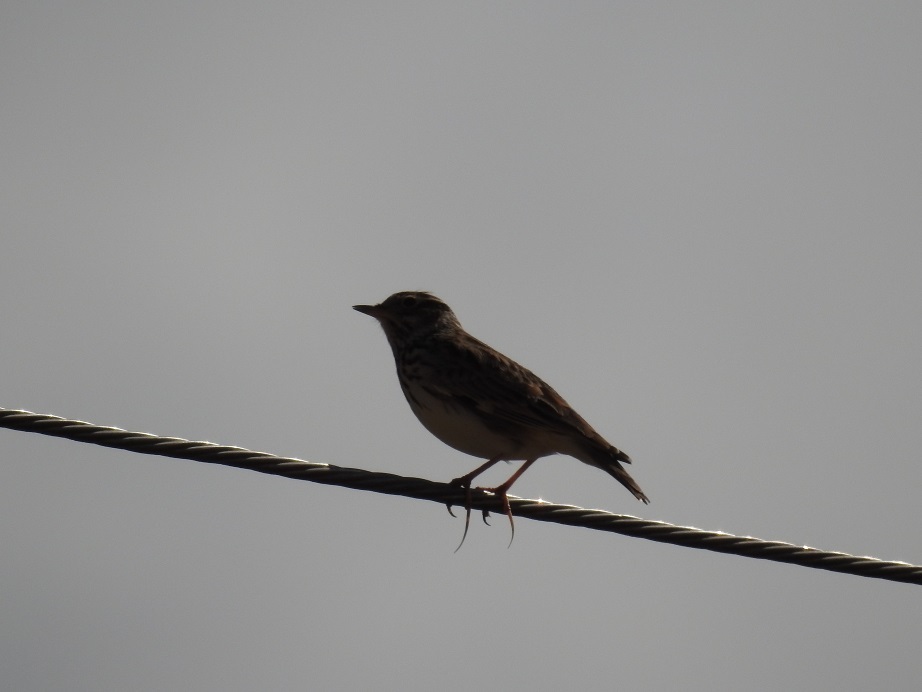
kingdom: Animalia
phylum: Chordata
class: Aves
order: Passeriformes
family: Alaudidae
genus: Lullula
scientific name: Lullula arborea
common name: Woodlark
